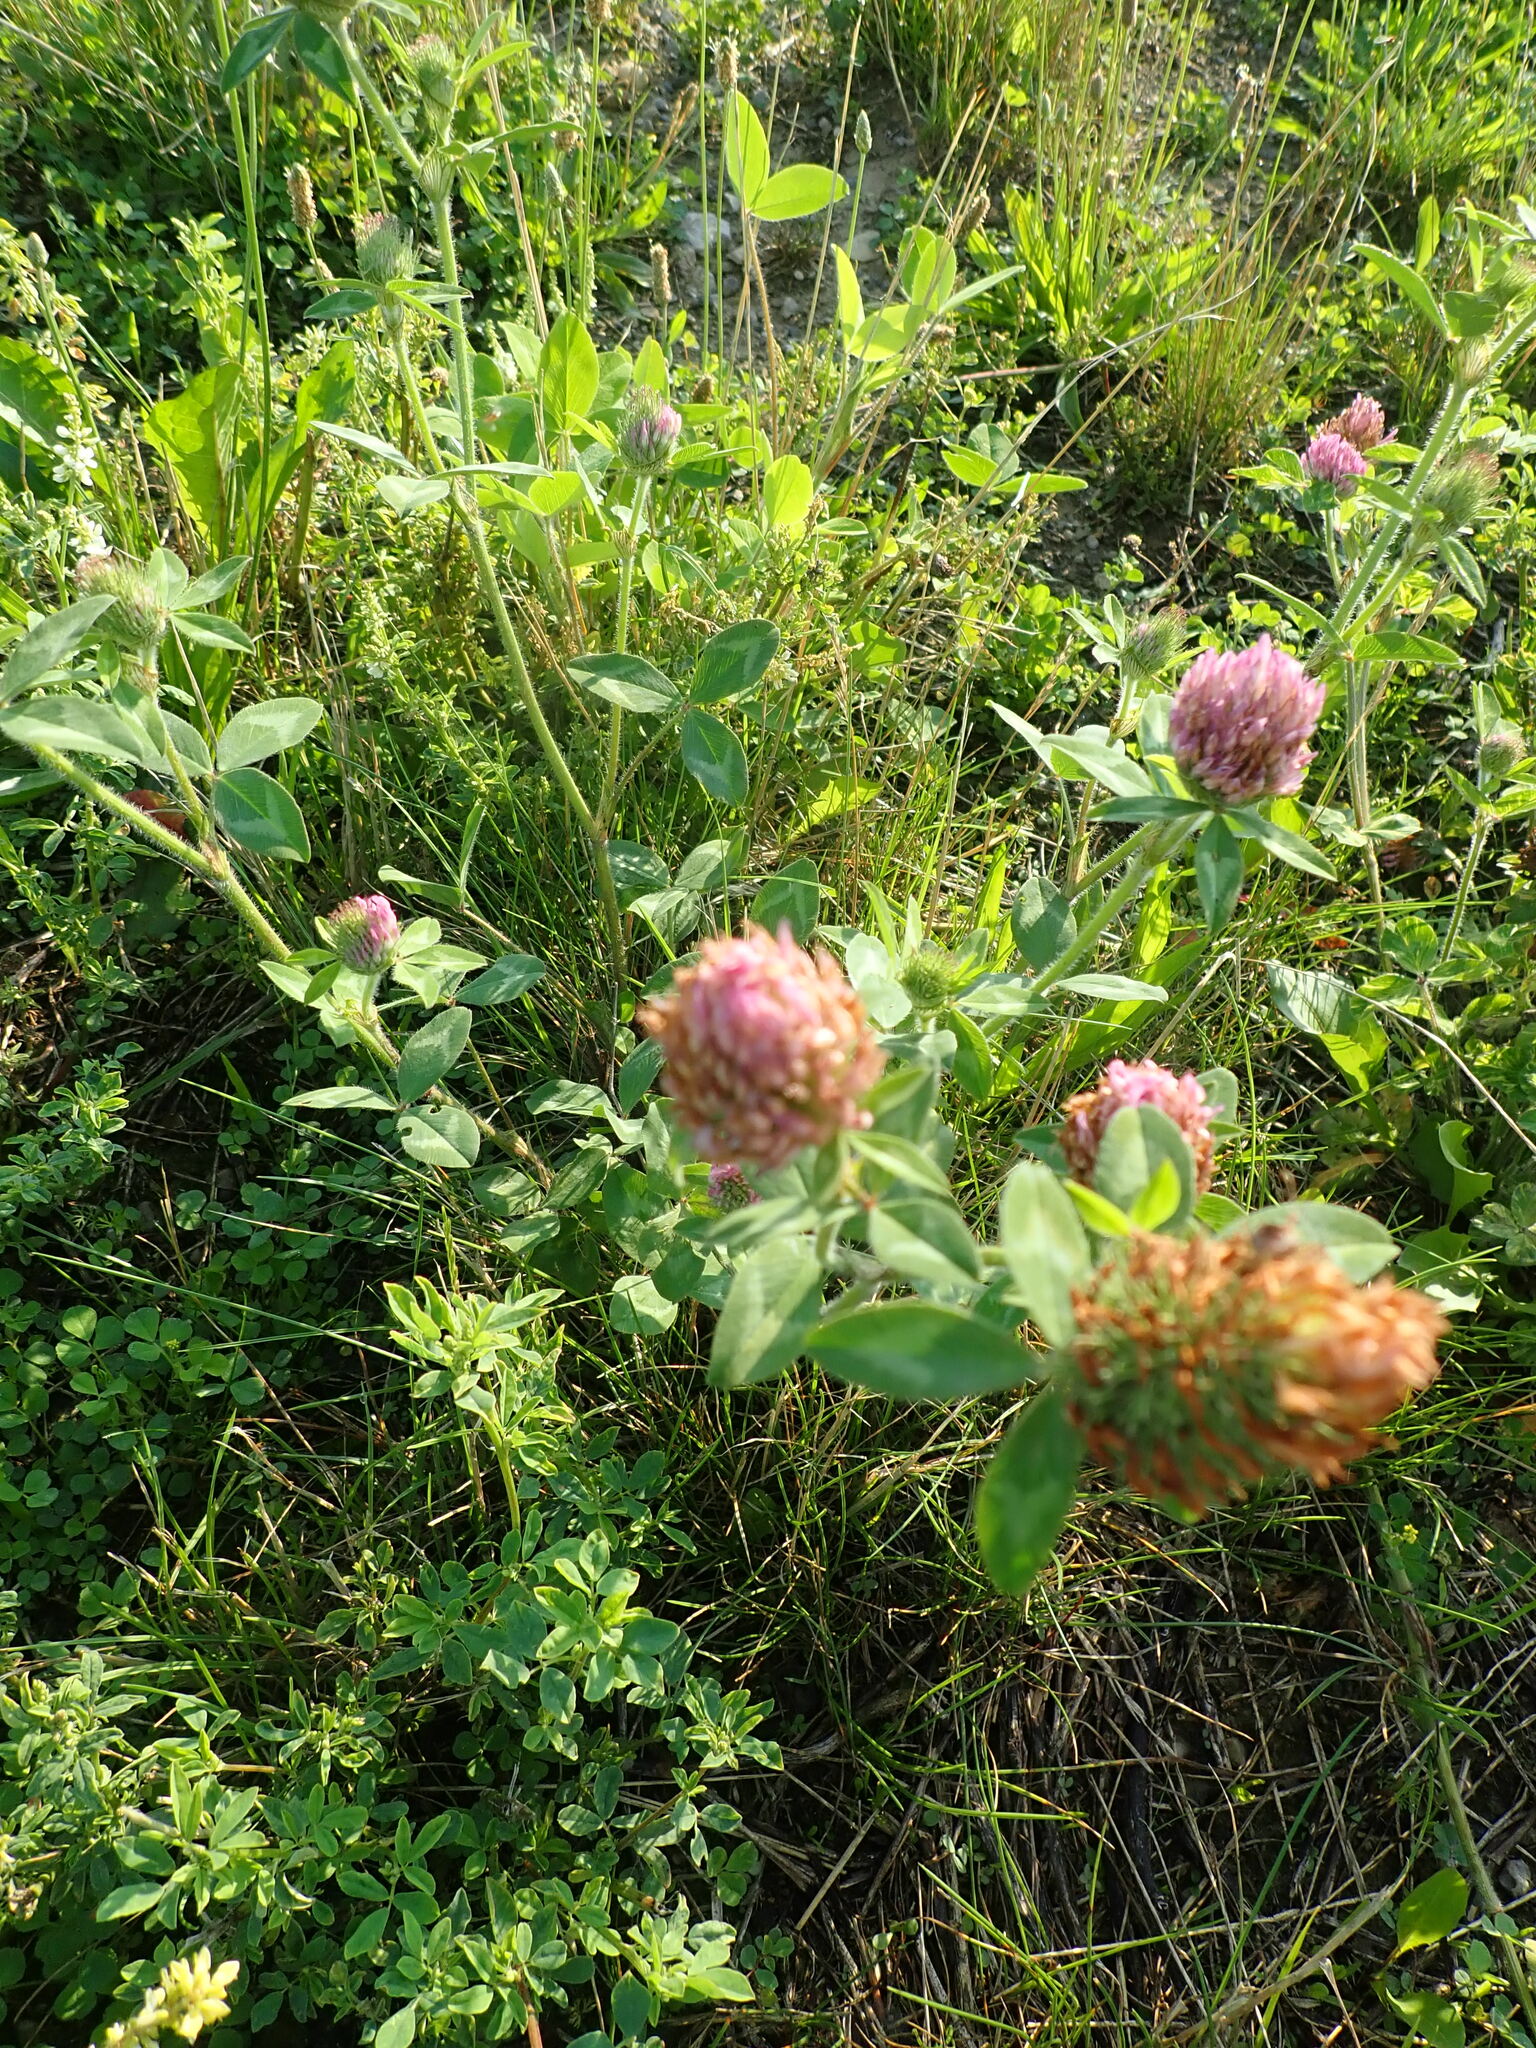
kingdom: Plantae
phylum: Tracheophyta
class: Magnoliopsida
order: Fabales
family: Fabaceae
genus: Trifolium
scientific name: Trifolium pratense
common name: Red clover
